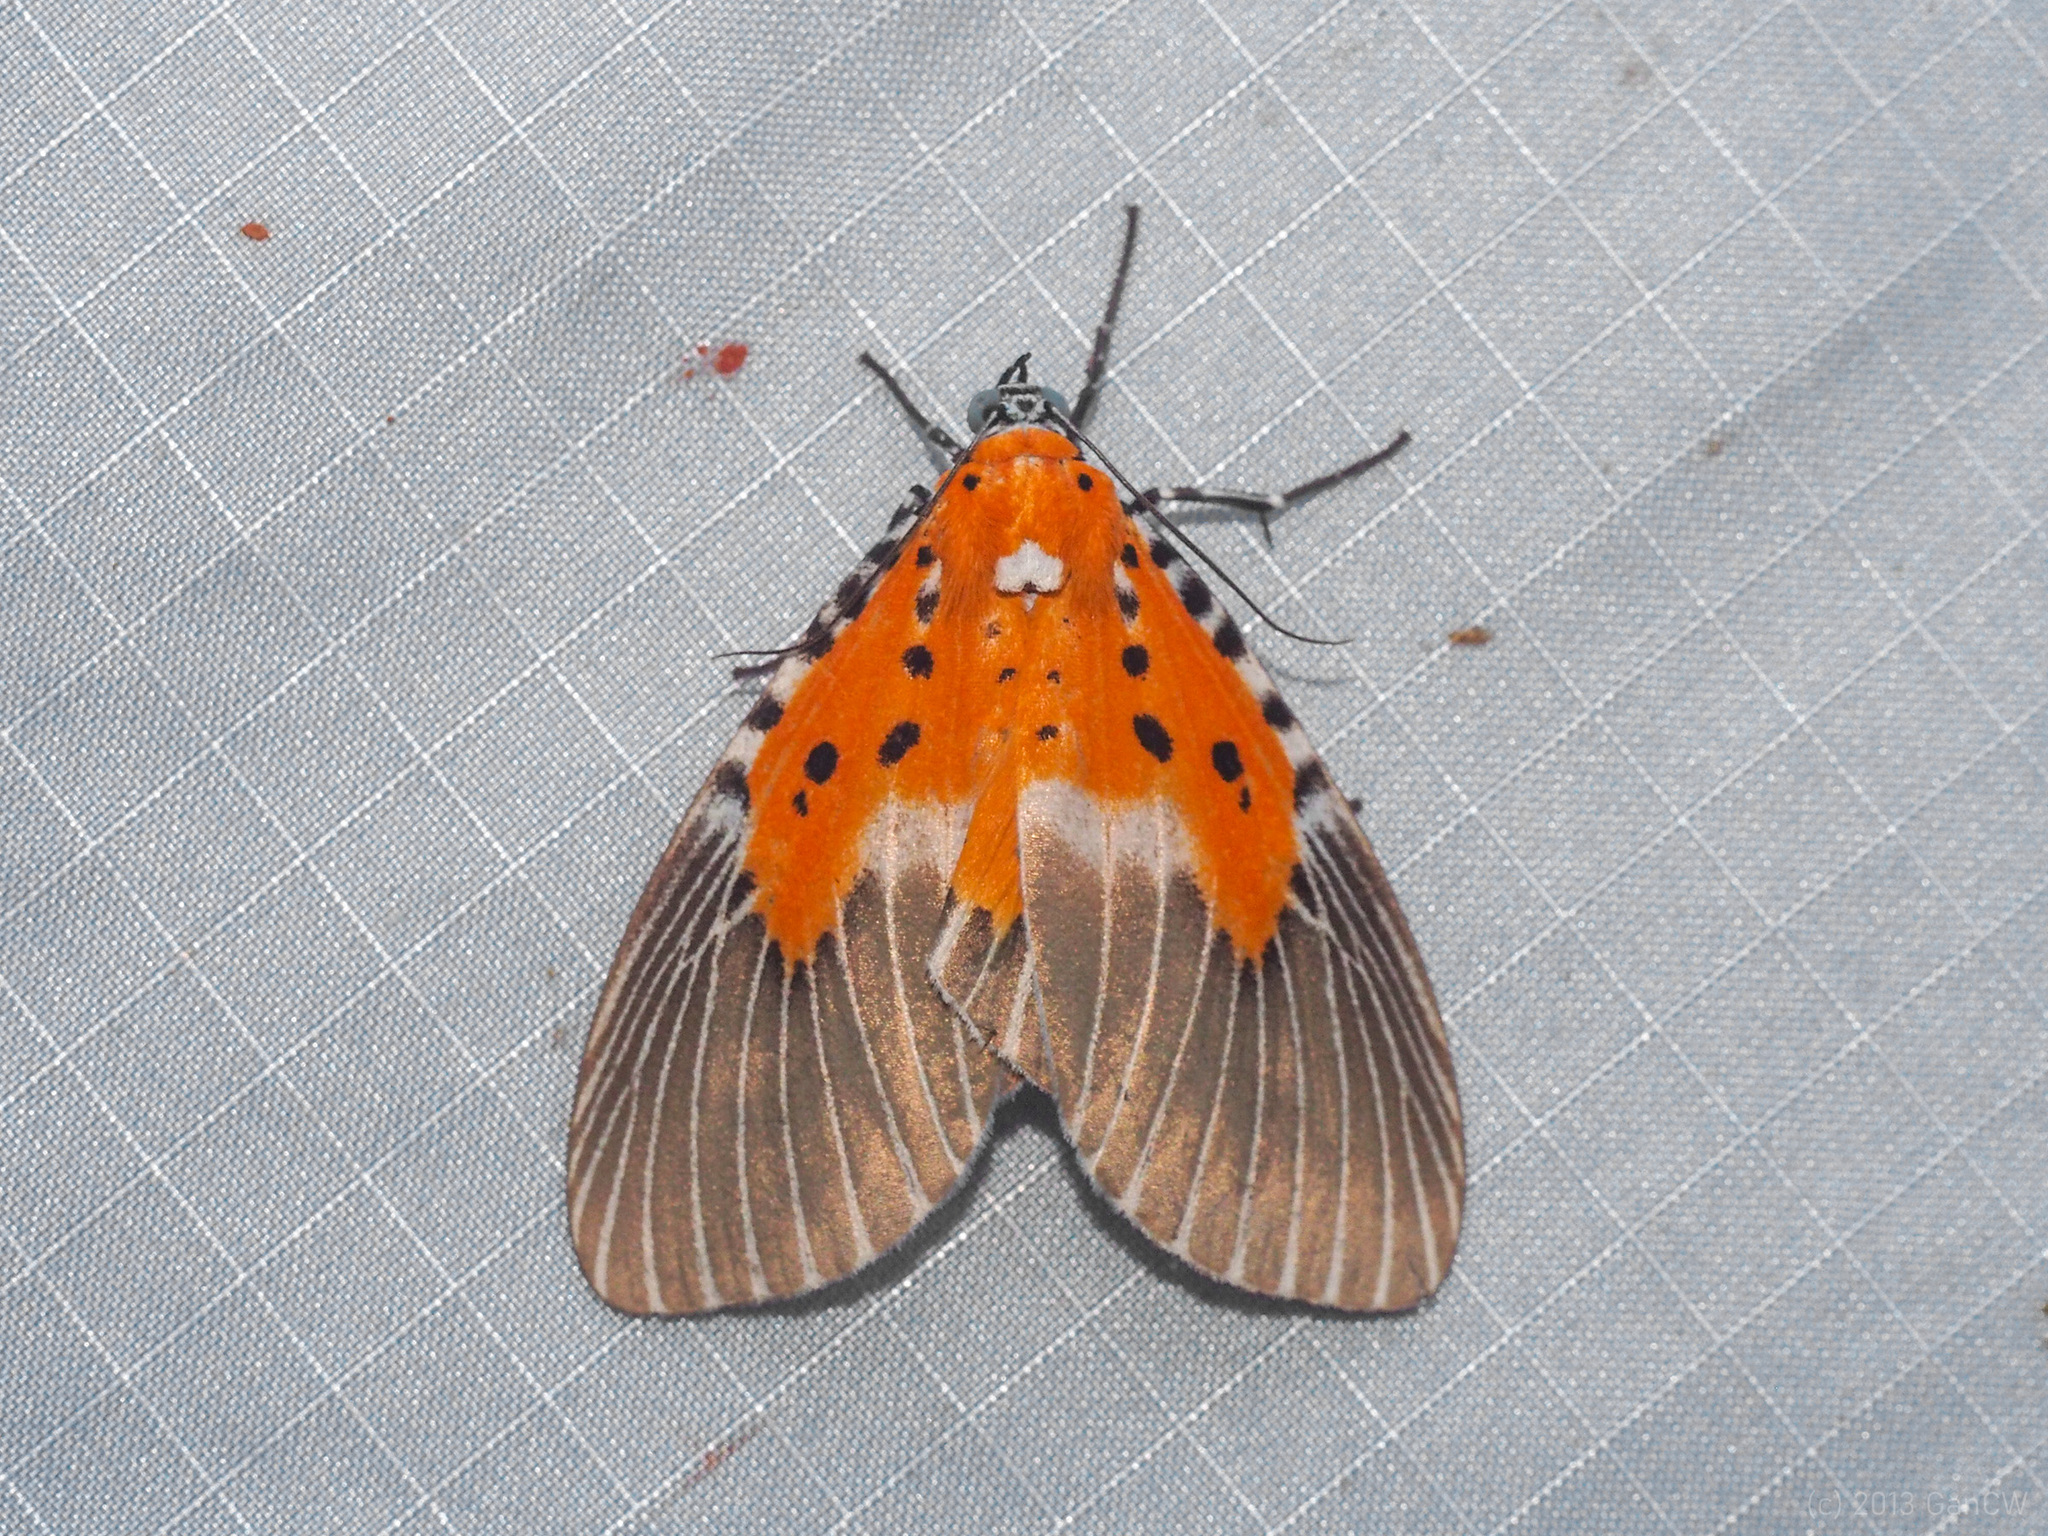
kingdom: Animalia
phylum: Arthropoda
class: Insecta
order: Lepidoptera
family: Erebidae
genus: Peridrome
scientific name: Peridrome subfascia
